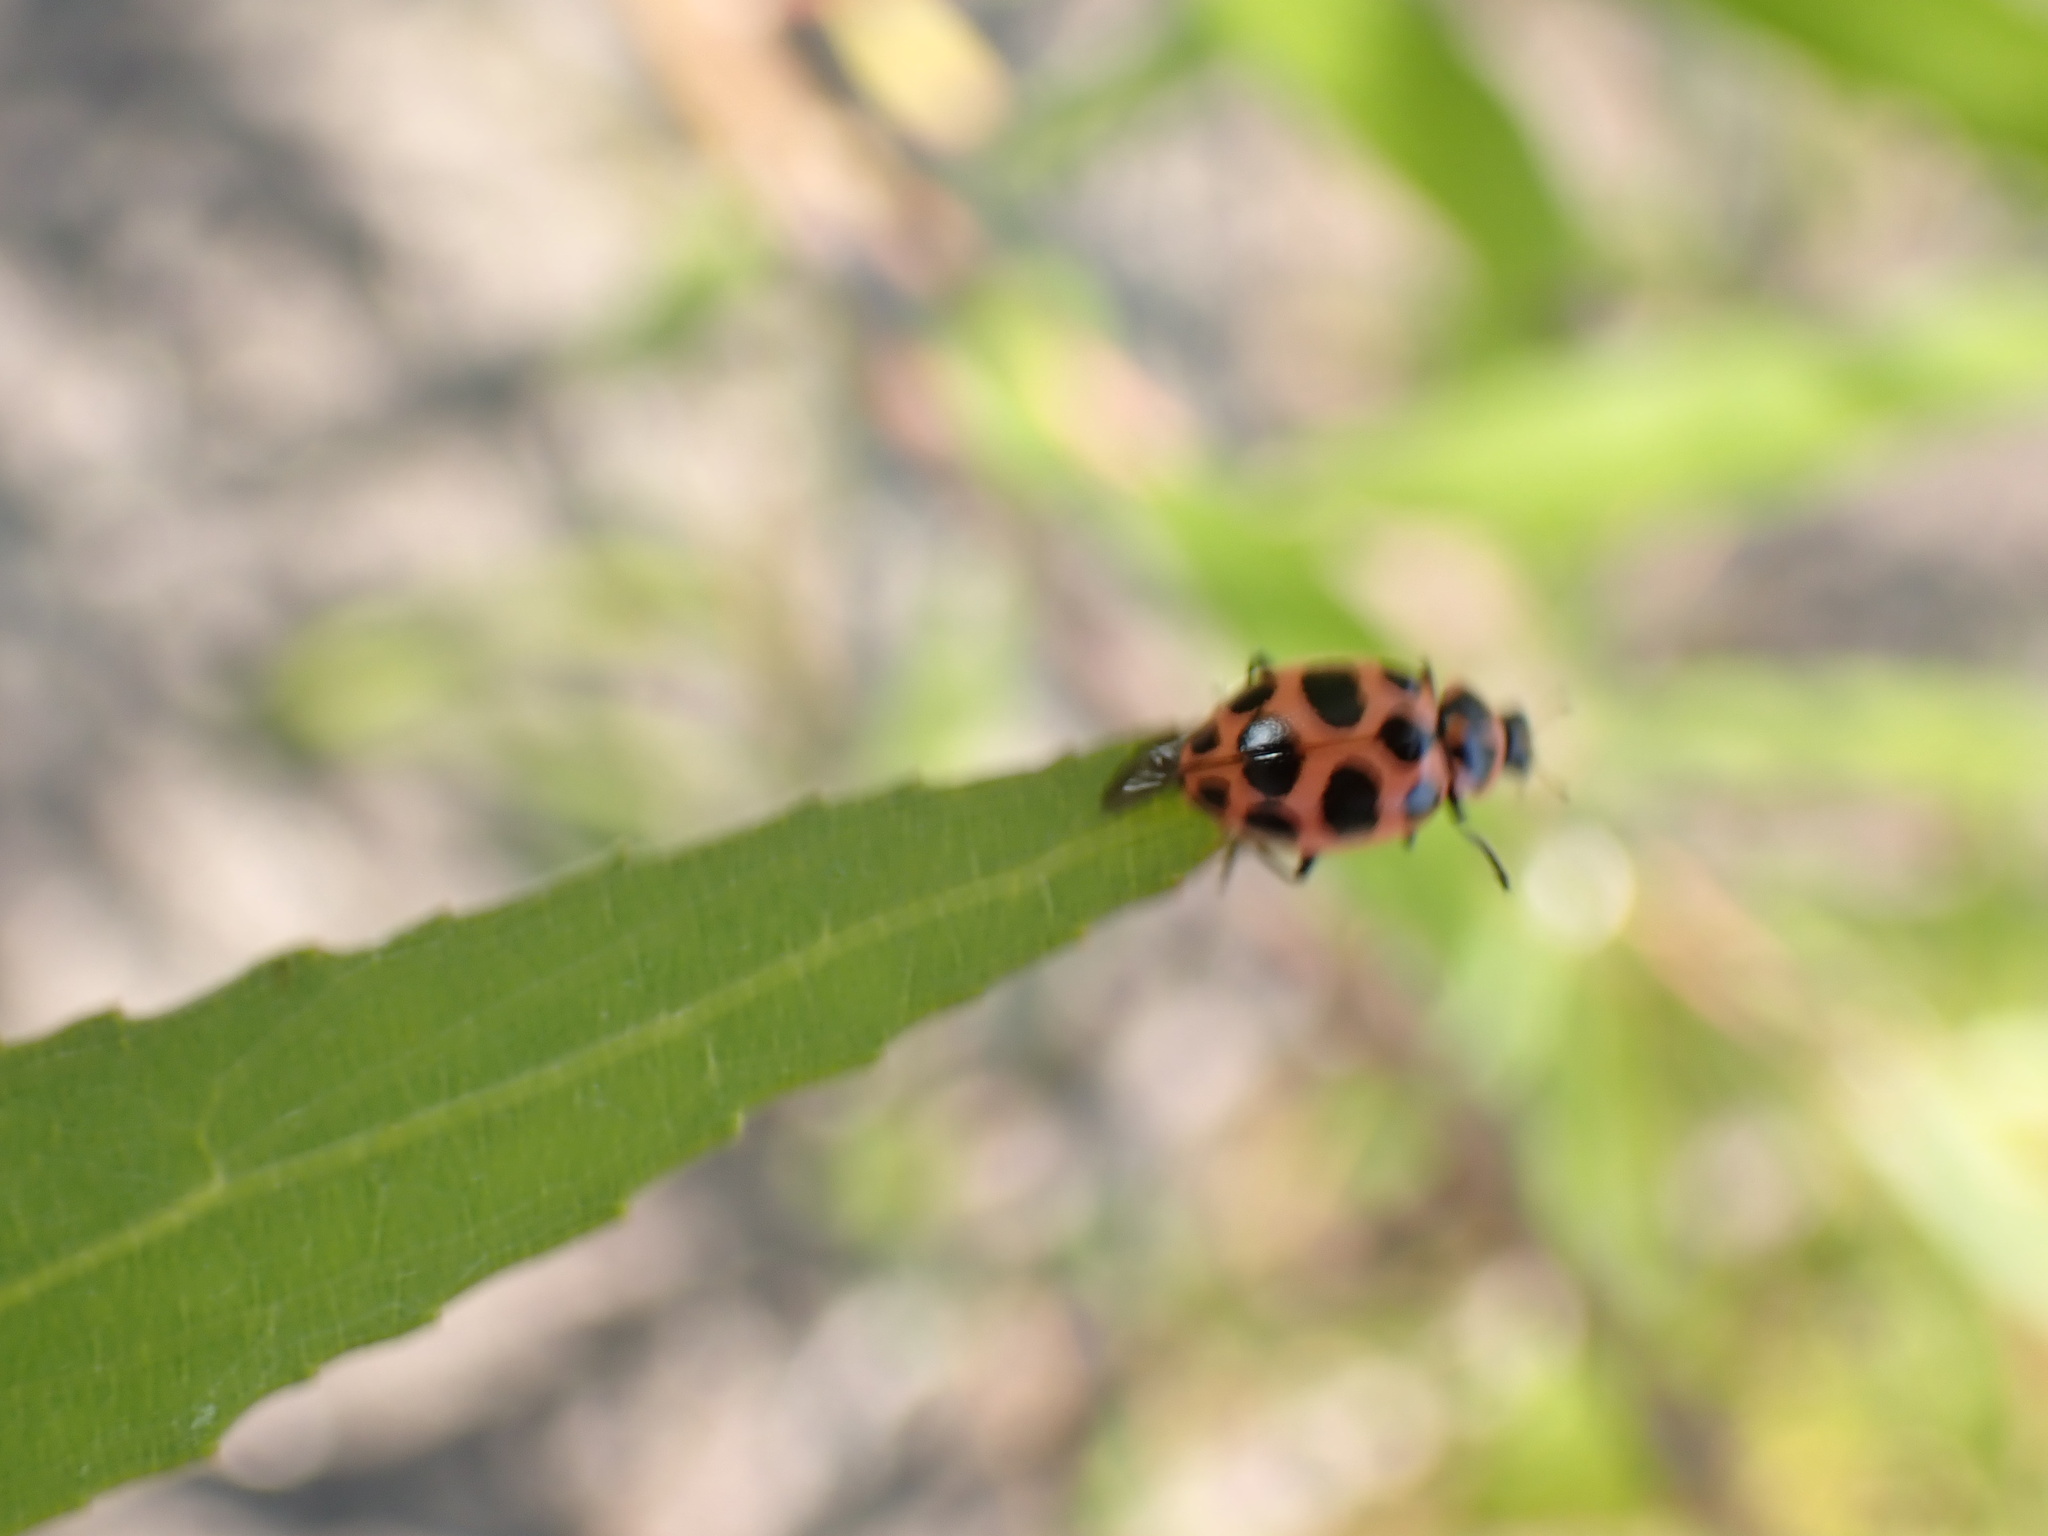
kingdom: Animalia
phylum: Arthropoda
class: Insecta
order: Coleoptera
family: Coccinellidae
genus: Coleomegilla
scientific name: Coleomegilla maculata
